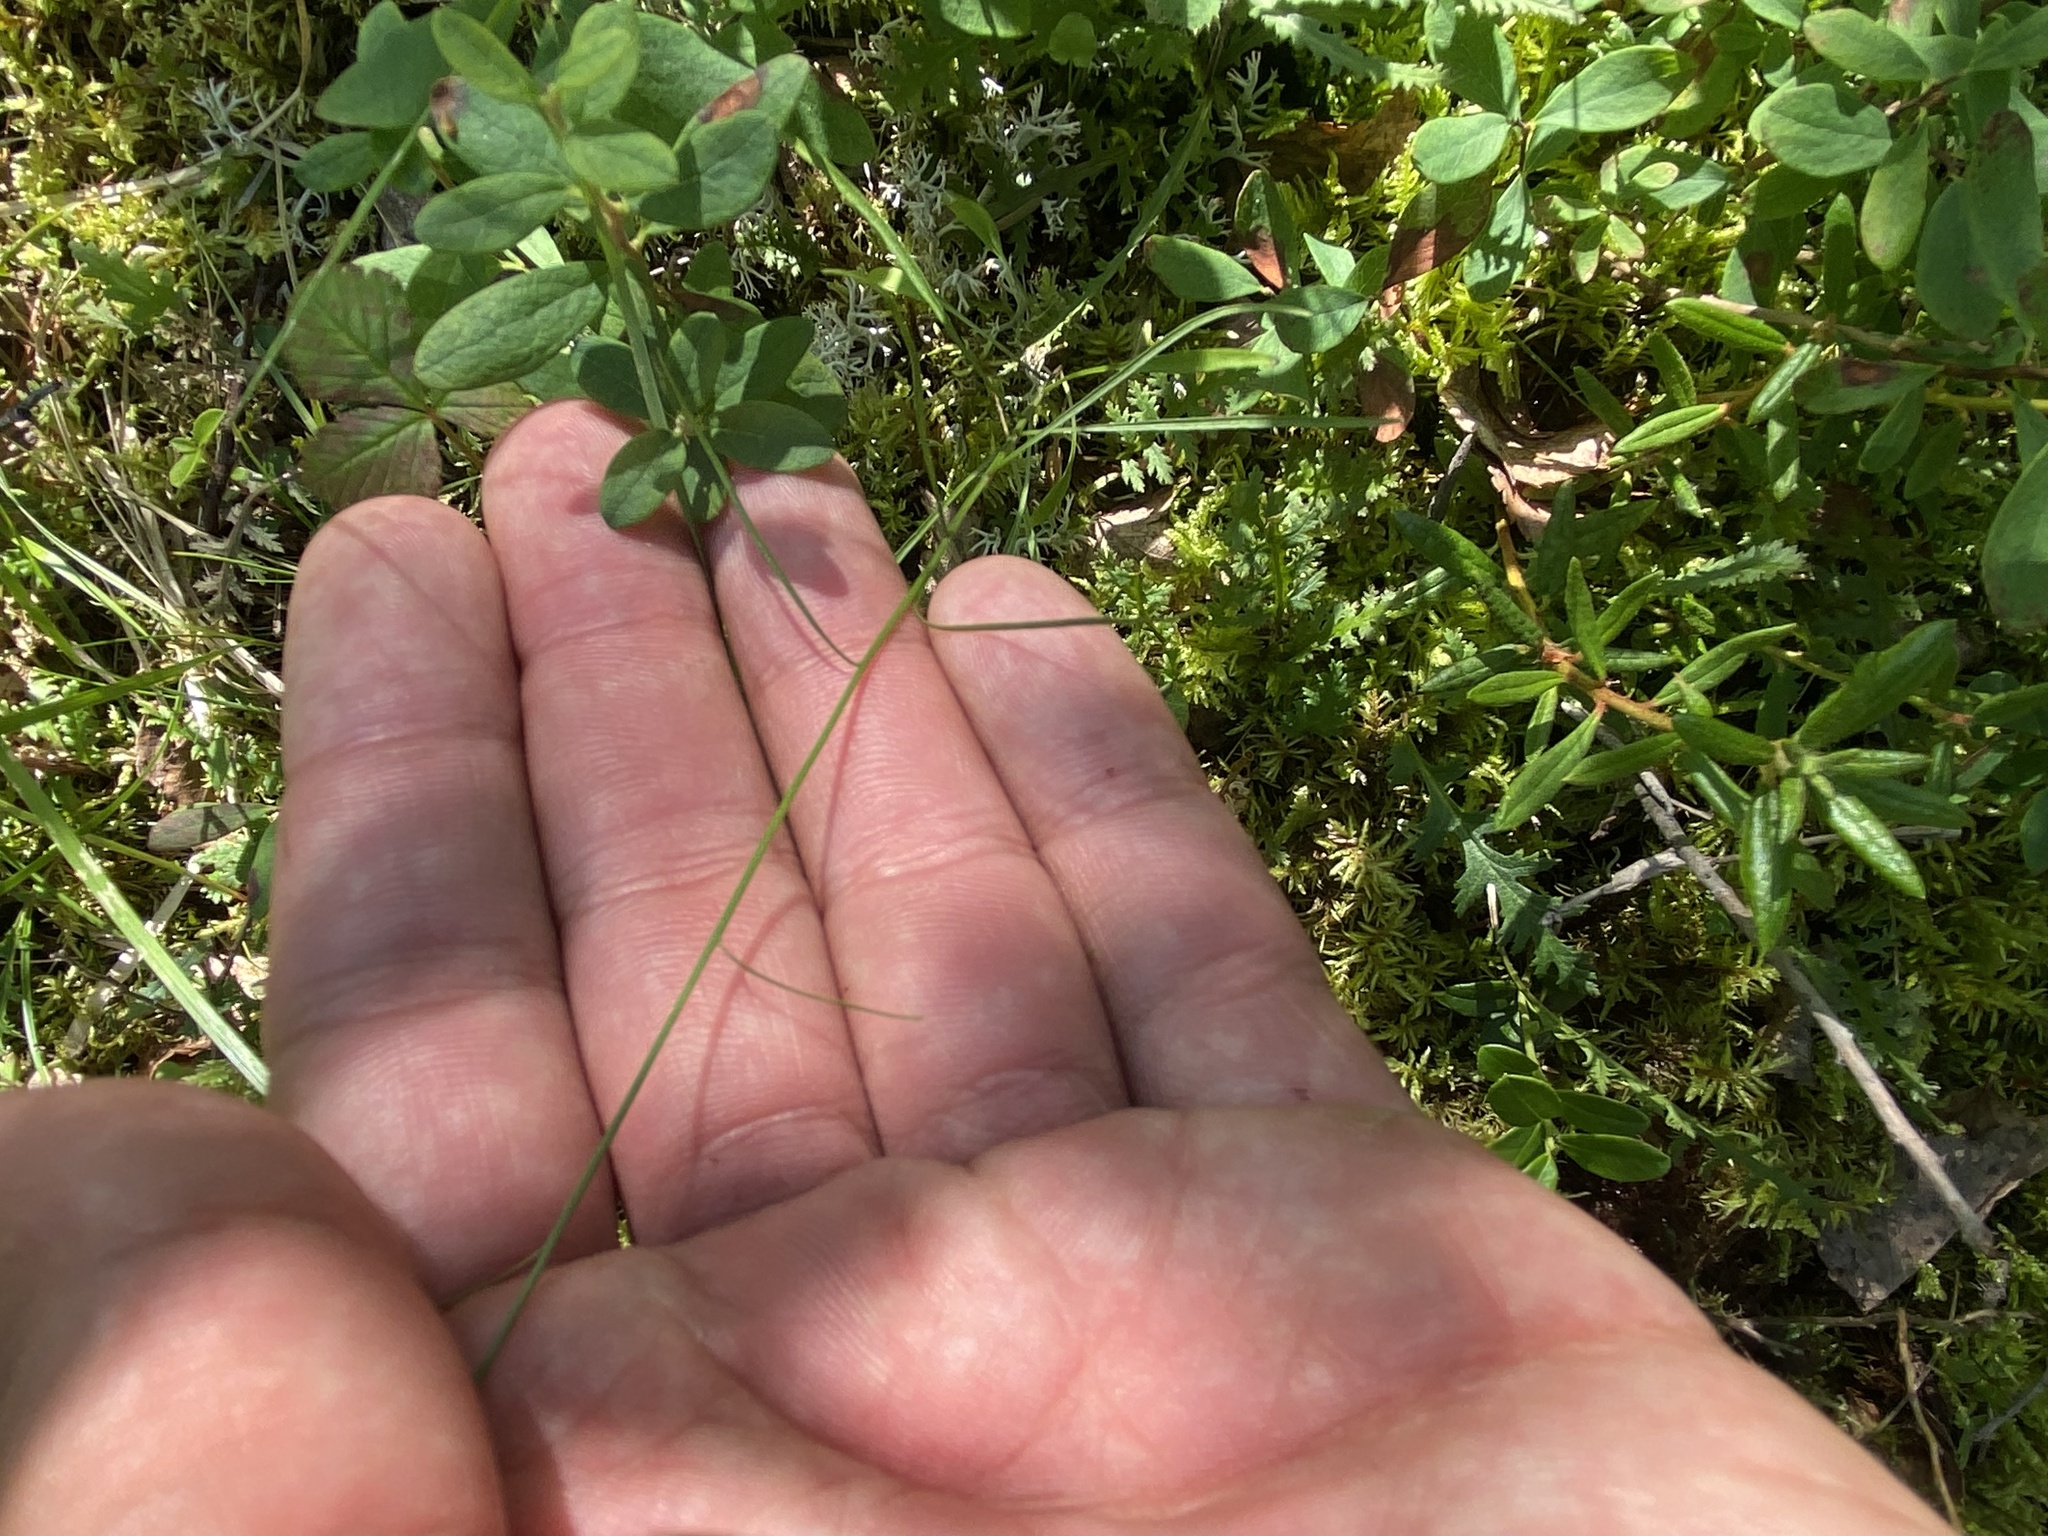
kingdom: Plantae
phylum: Tracheophyta
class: Magnoliopsida
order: Asterales
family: Campanulaceae
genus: Campanula
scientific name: Campanula rotundifolia
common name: Harebell
